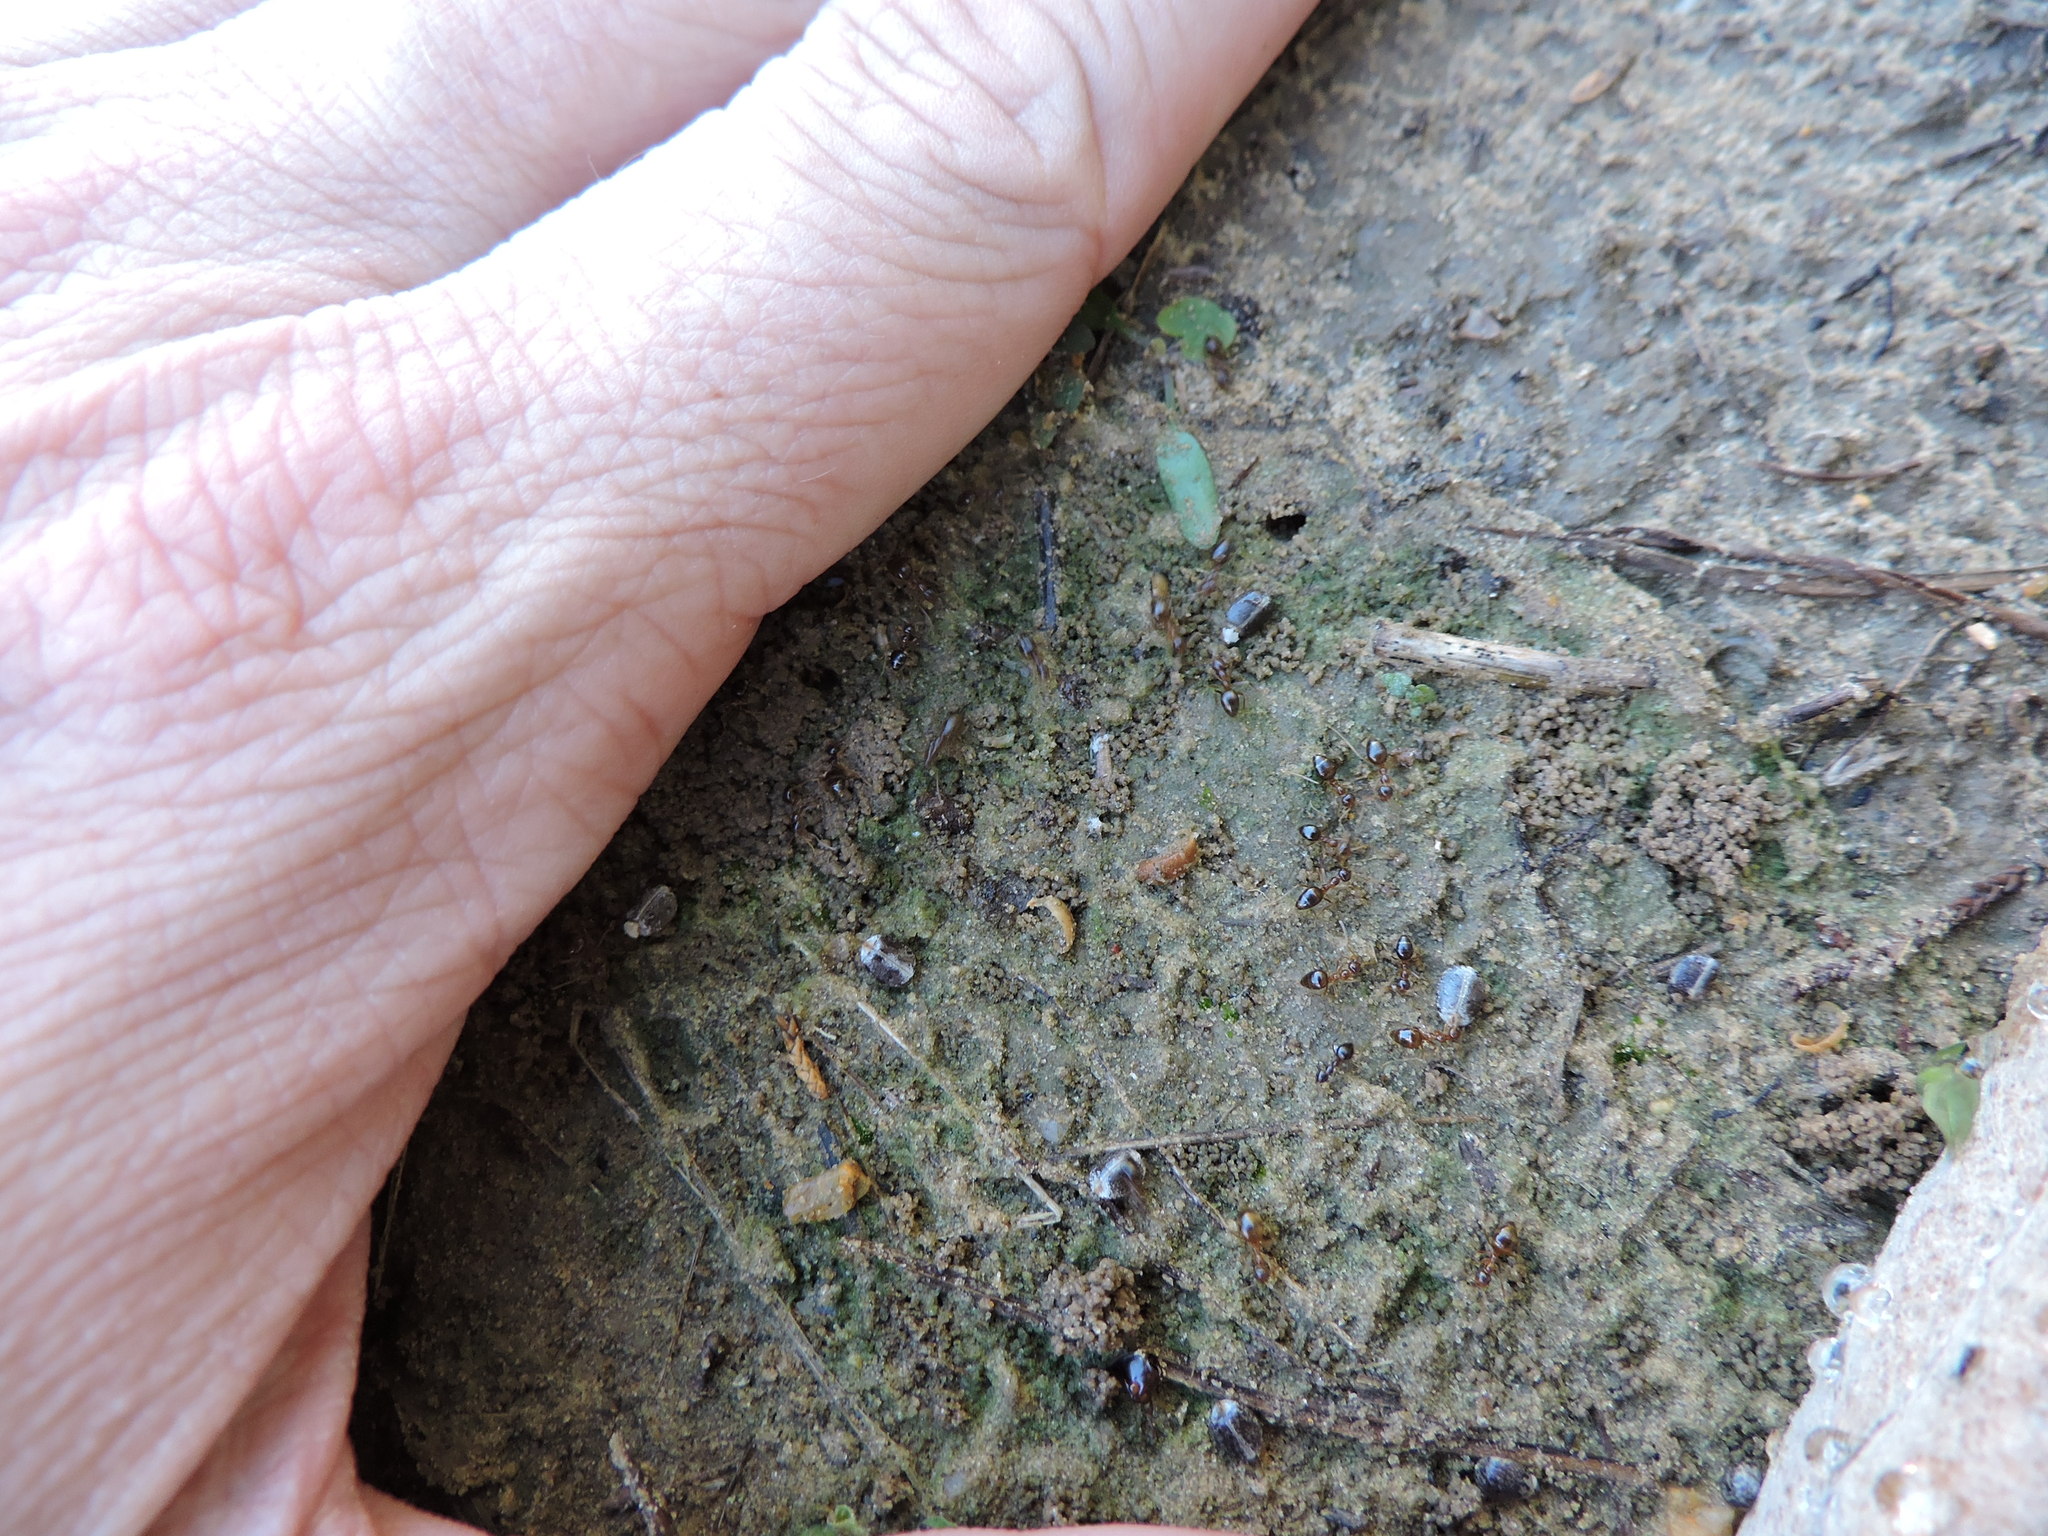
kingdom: Animalia
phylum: Arthropoda
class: Insecta
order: Hymenoptera
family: Formicidae
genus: Prenolepis
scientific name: Prenolepis imparis
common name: Small honey ant
